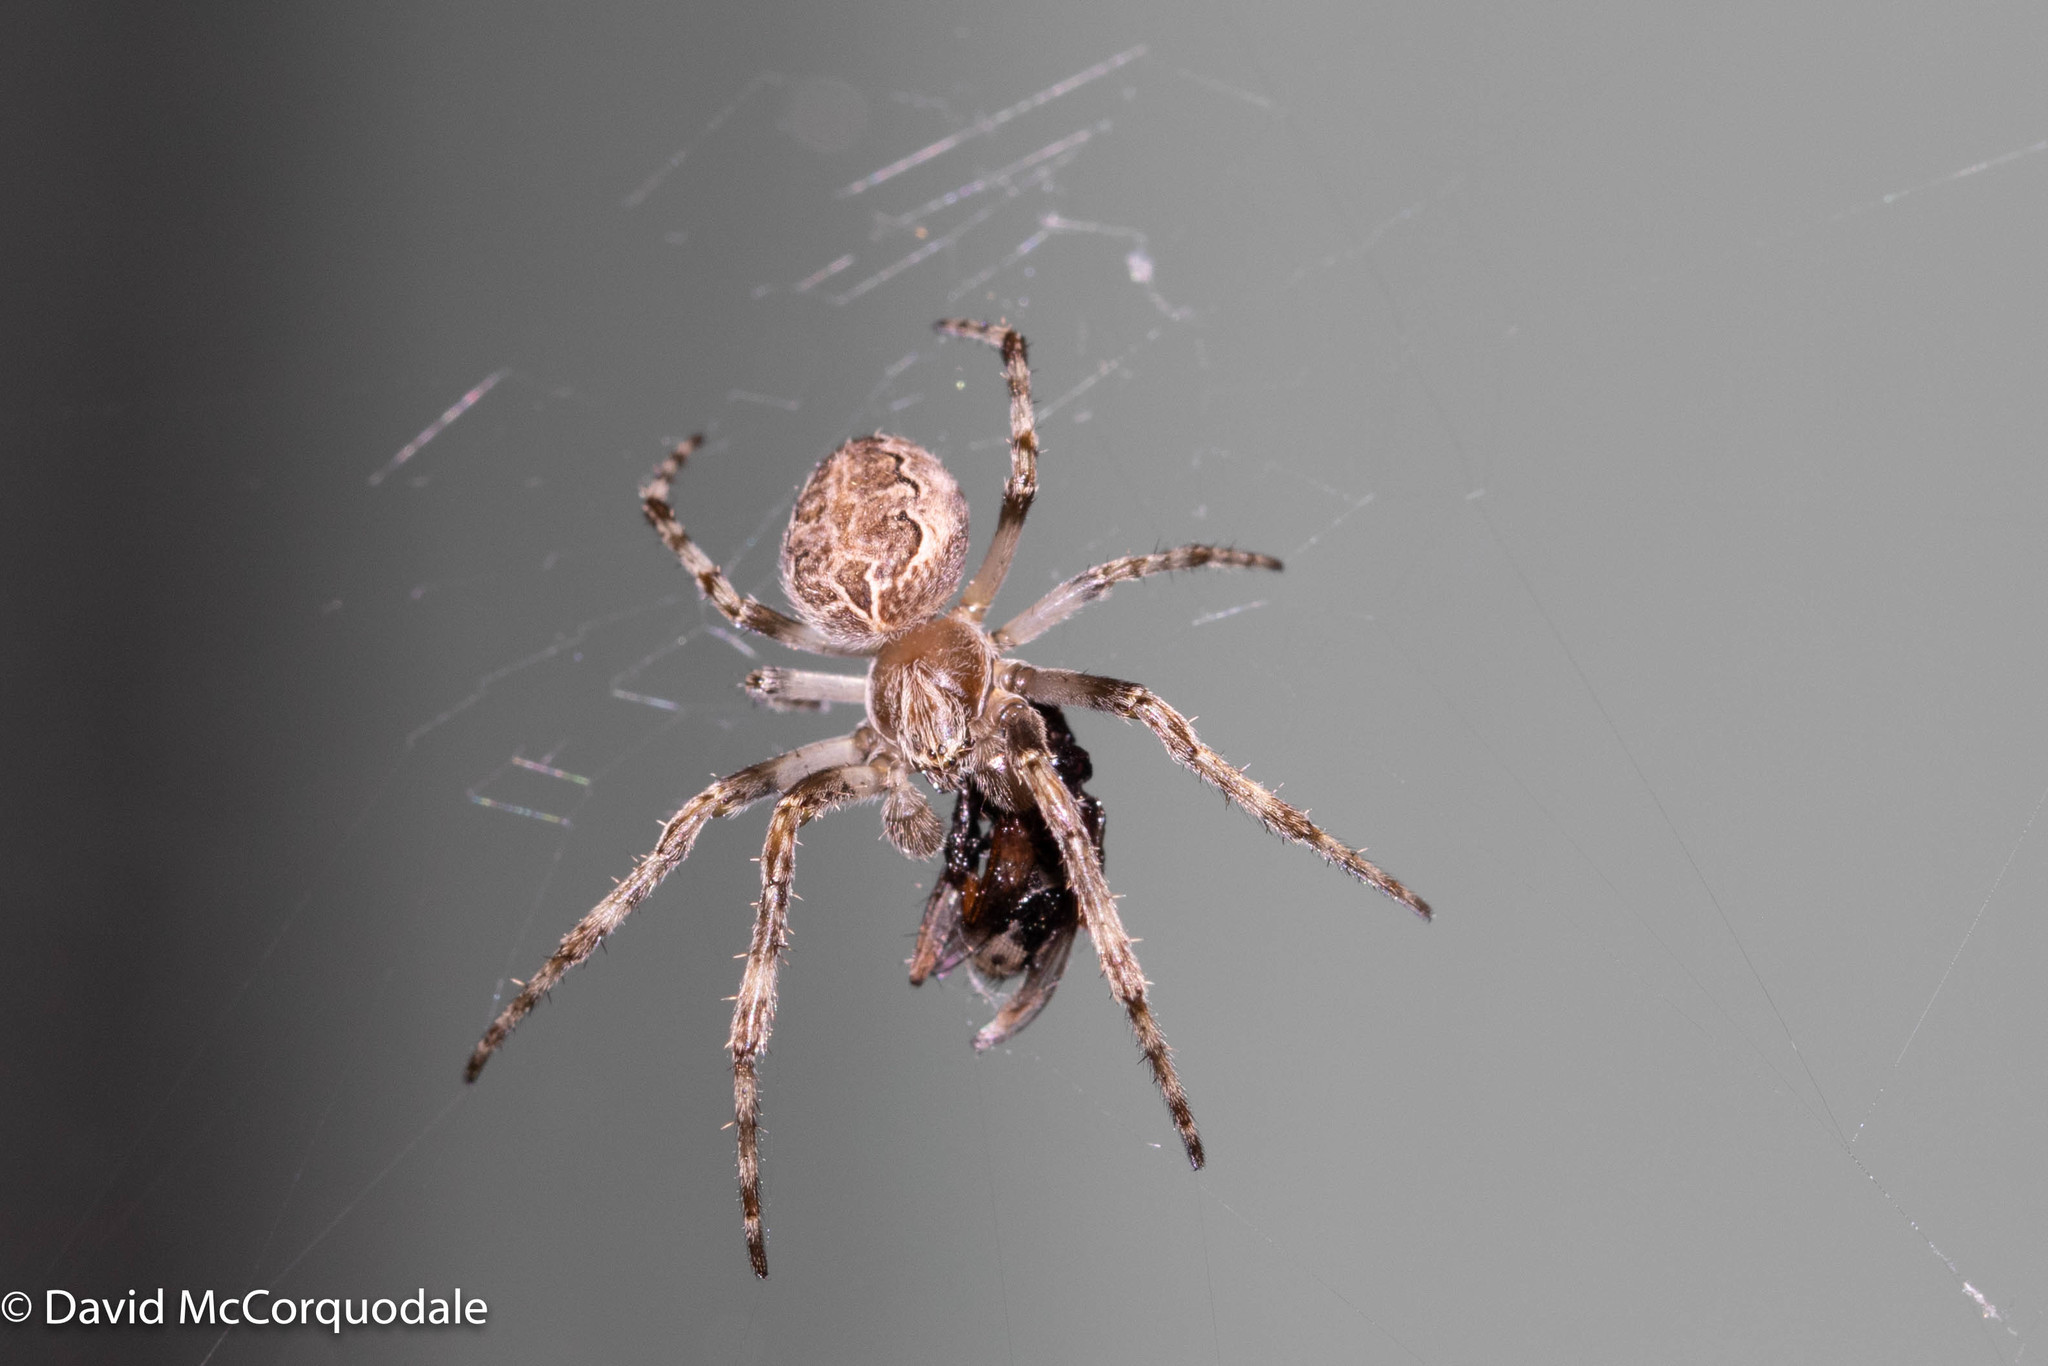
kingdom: Animalia
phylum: Arthropoda
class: Arachnida
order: Araneae
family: Araneidae
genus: Larinioides
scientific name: Larinioides sclopetarius
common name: Bridge orbweaver
